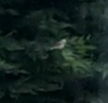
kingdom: Animalia
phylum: Chordata
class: Aves
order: Passeriformes
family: Laniidae
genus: Lanius
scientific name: Lanius collurio
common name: Red-backed shrike
